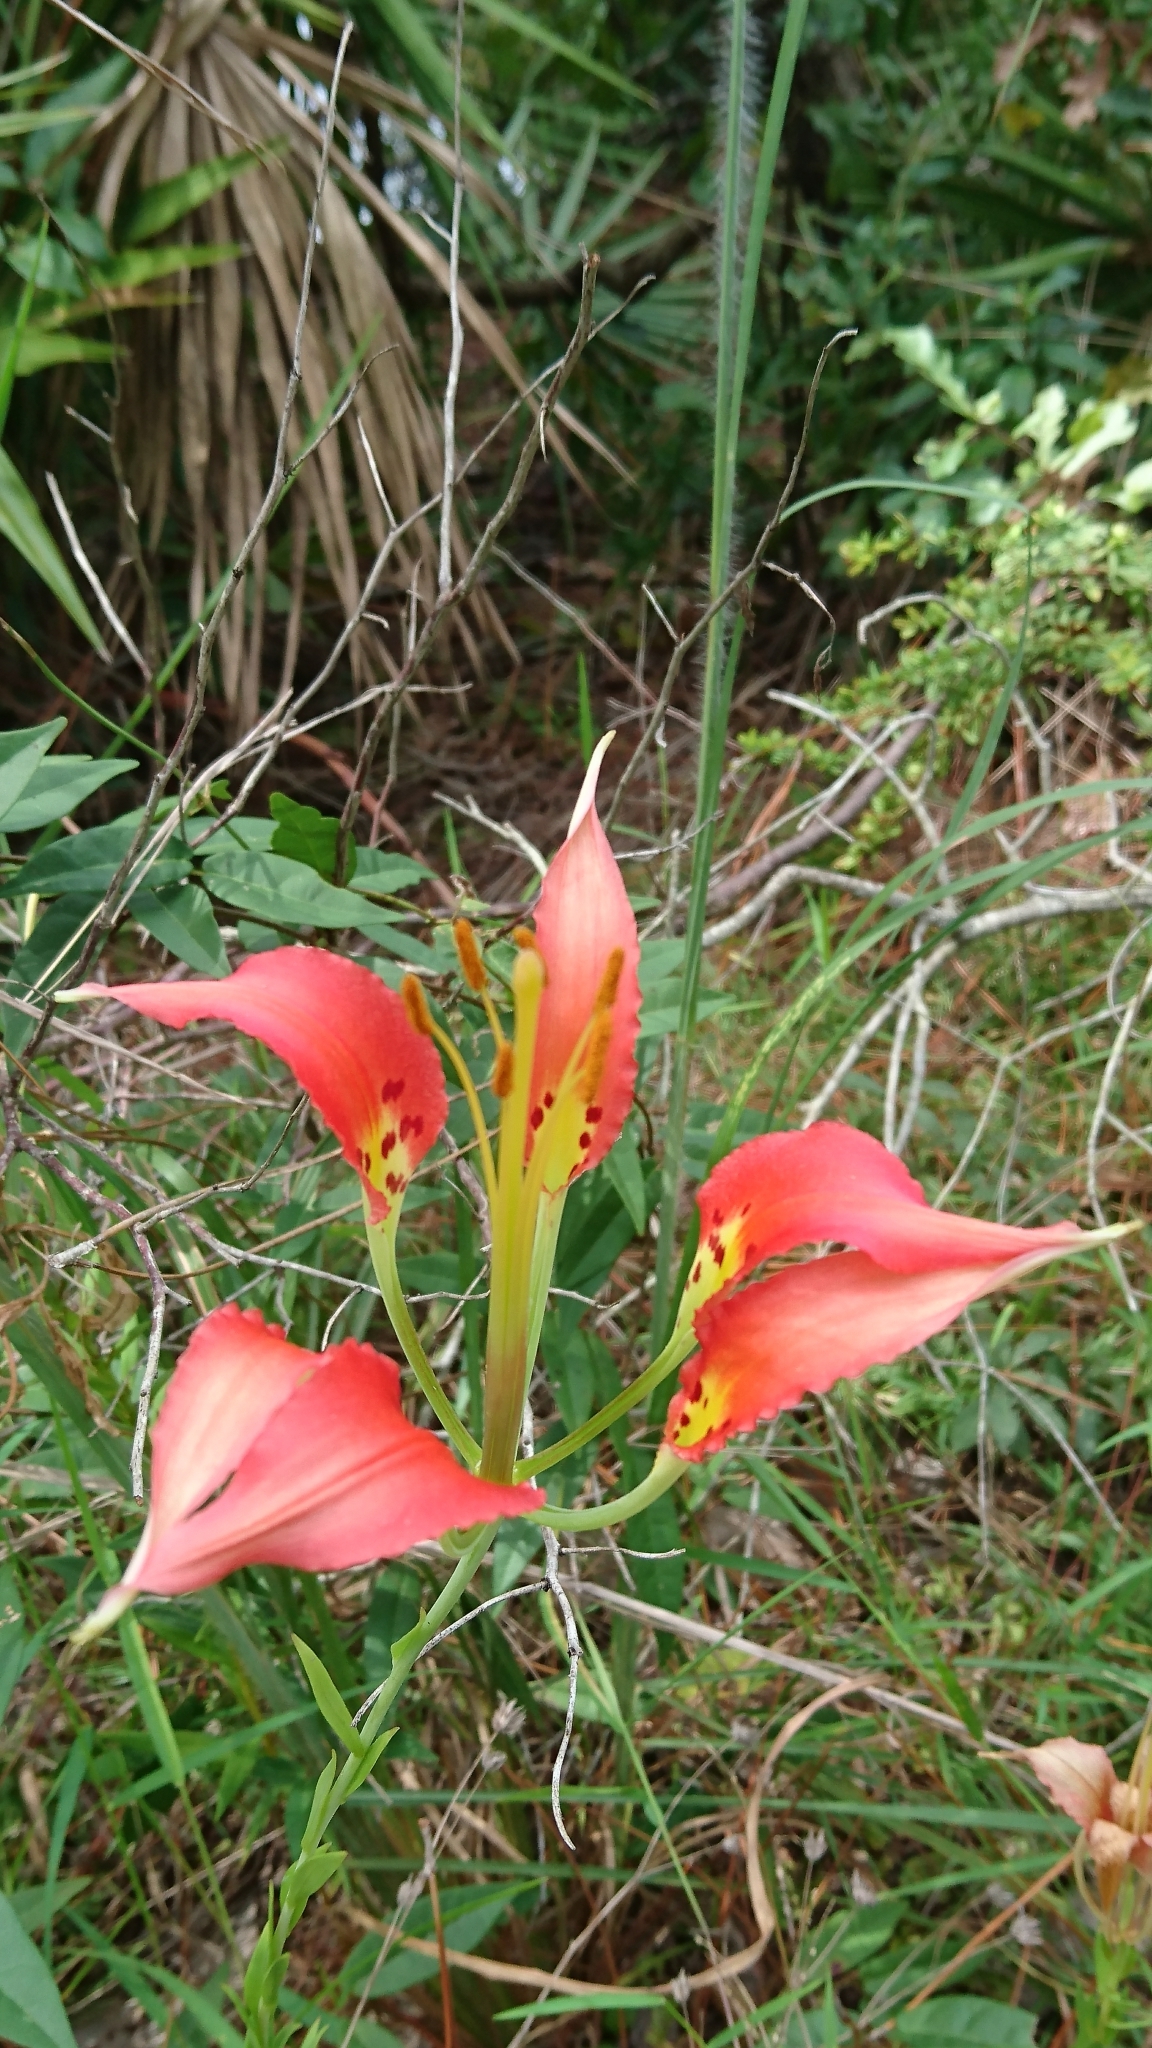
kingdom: Plantae
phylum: Tracheophyta
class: Liliopsida
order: Liliales
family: Liliaceae
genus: Lilium
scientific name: Lilium catesbaei
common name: Catesby's lily
